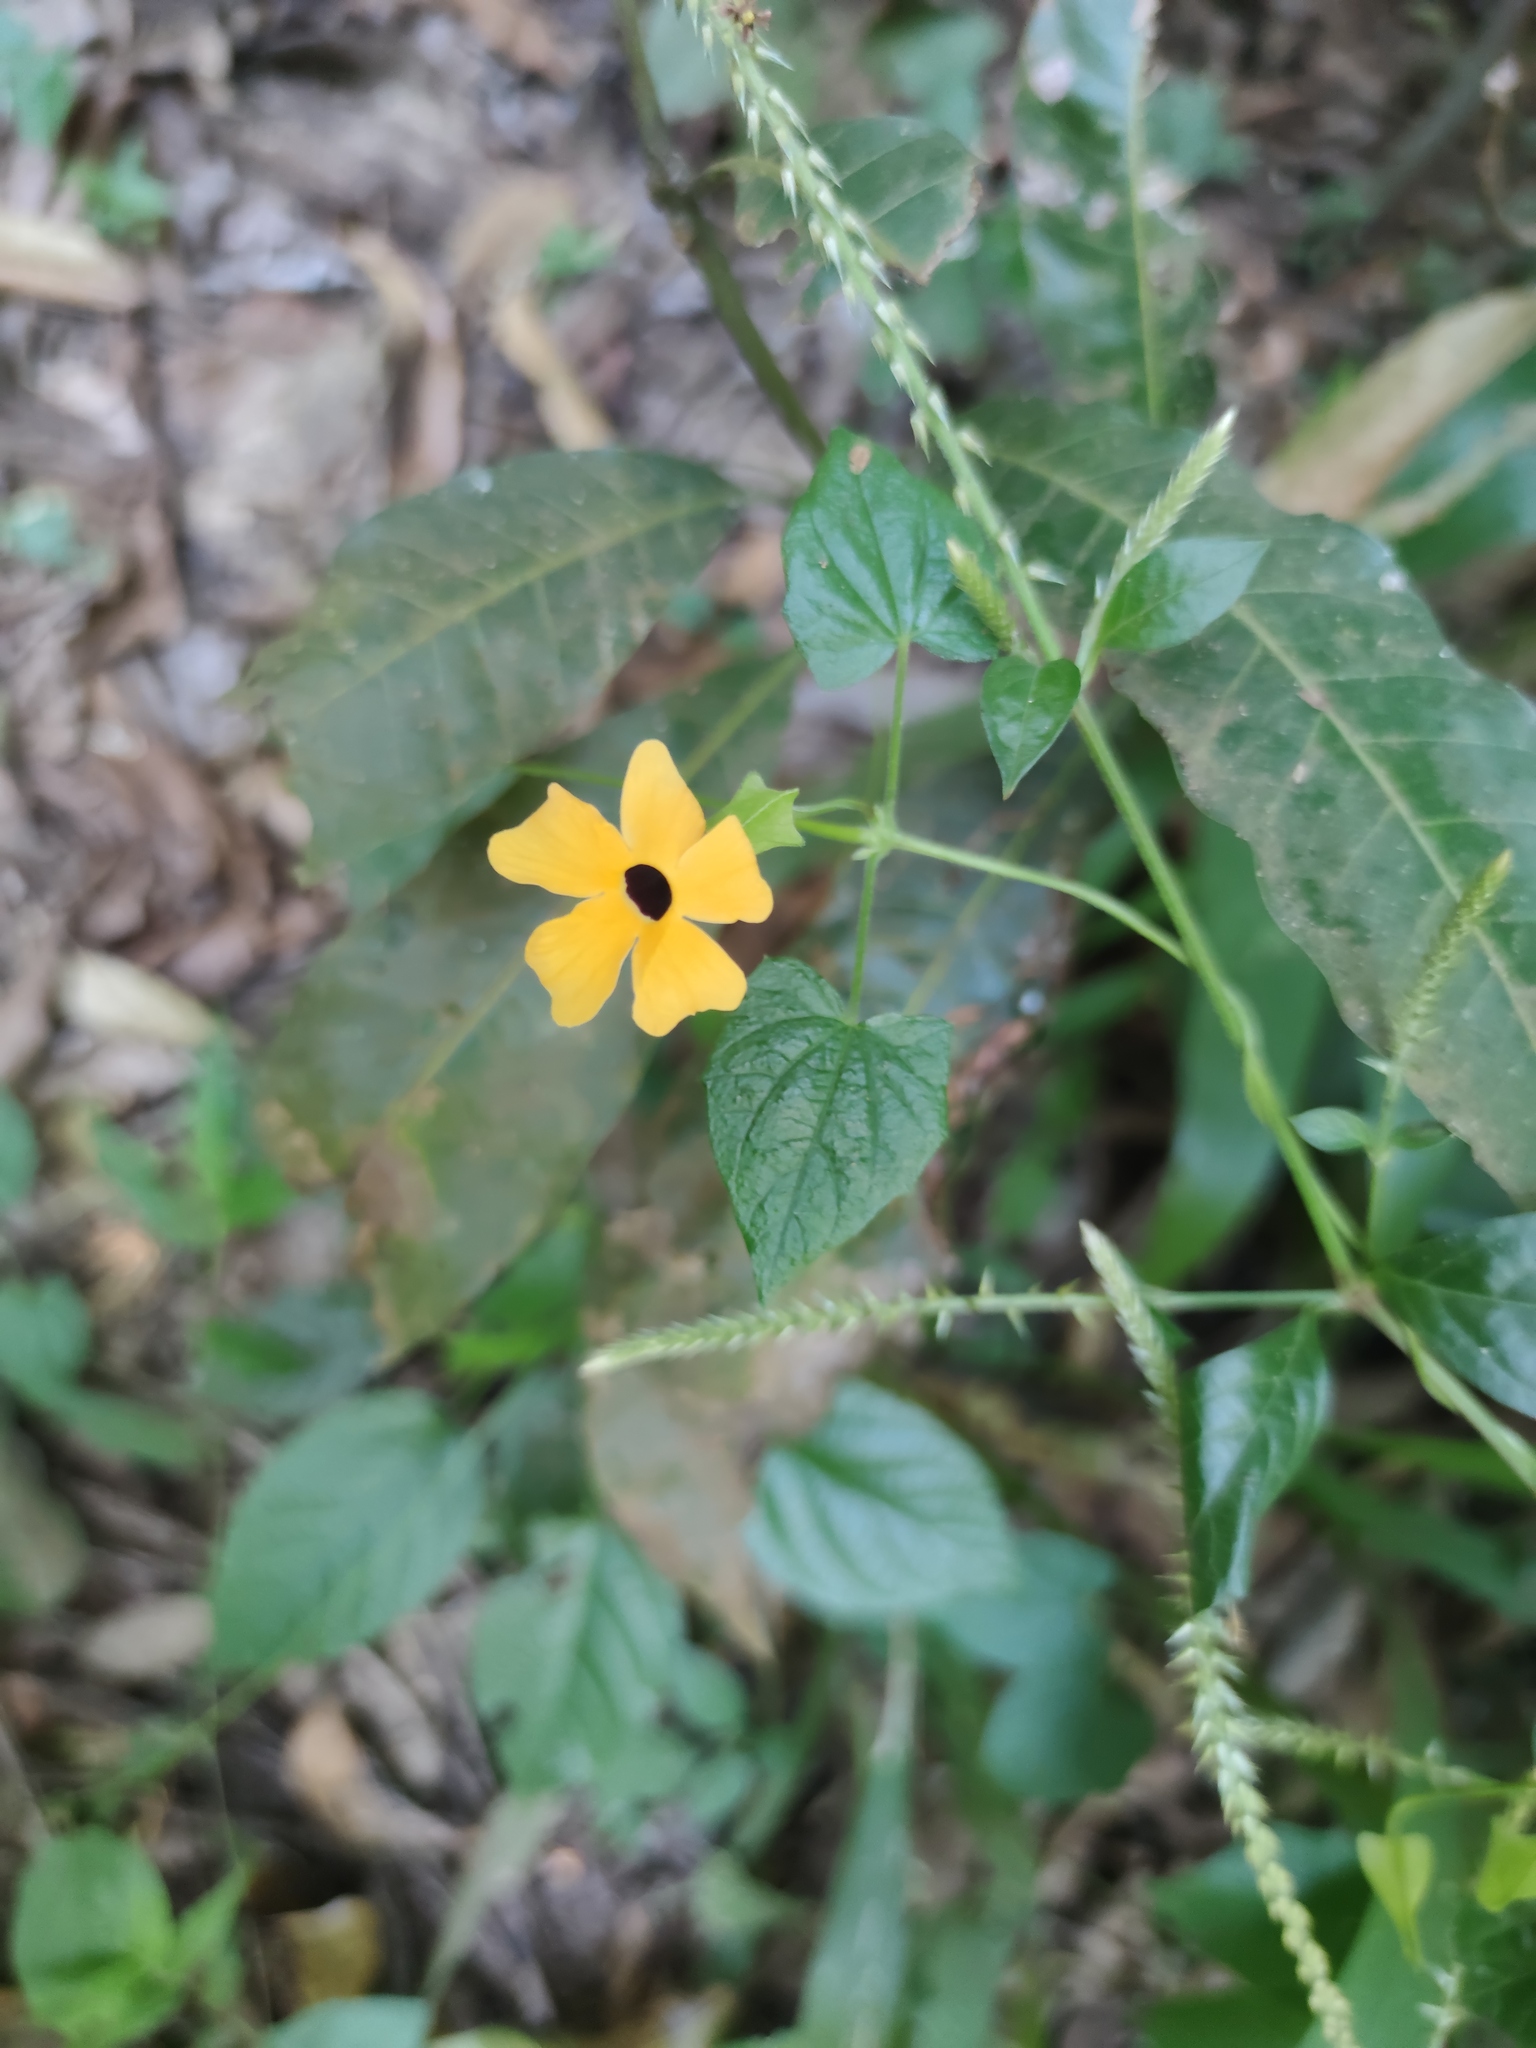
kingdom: Plantae
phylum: Tracheophyta
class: Magnoliopsida
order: Lamiales
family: Acanthaceae
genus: Thunbergia
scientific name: Thunbergia alata
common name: Blackeyed susan vine
